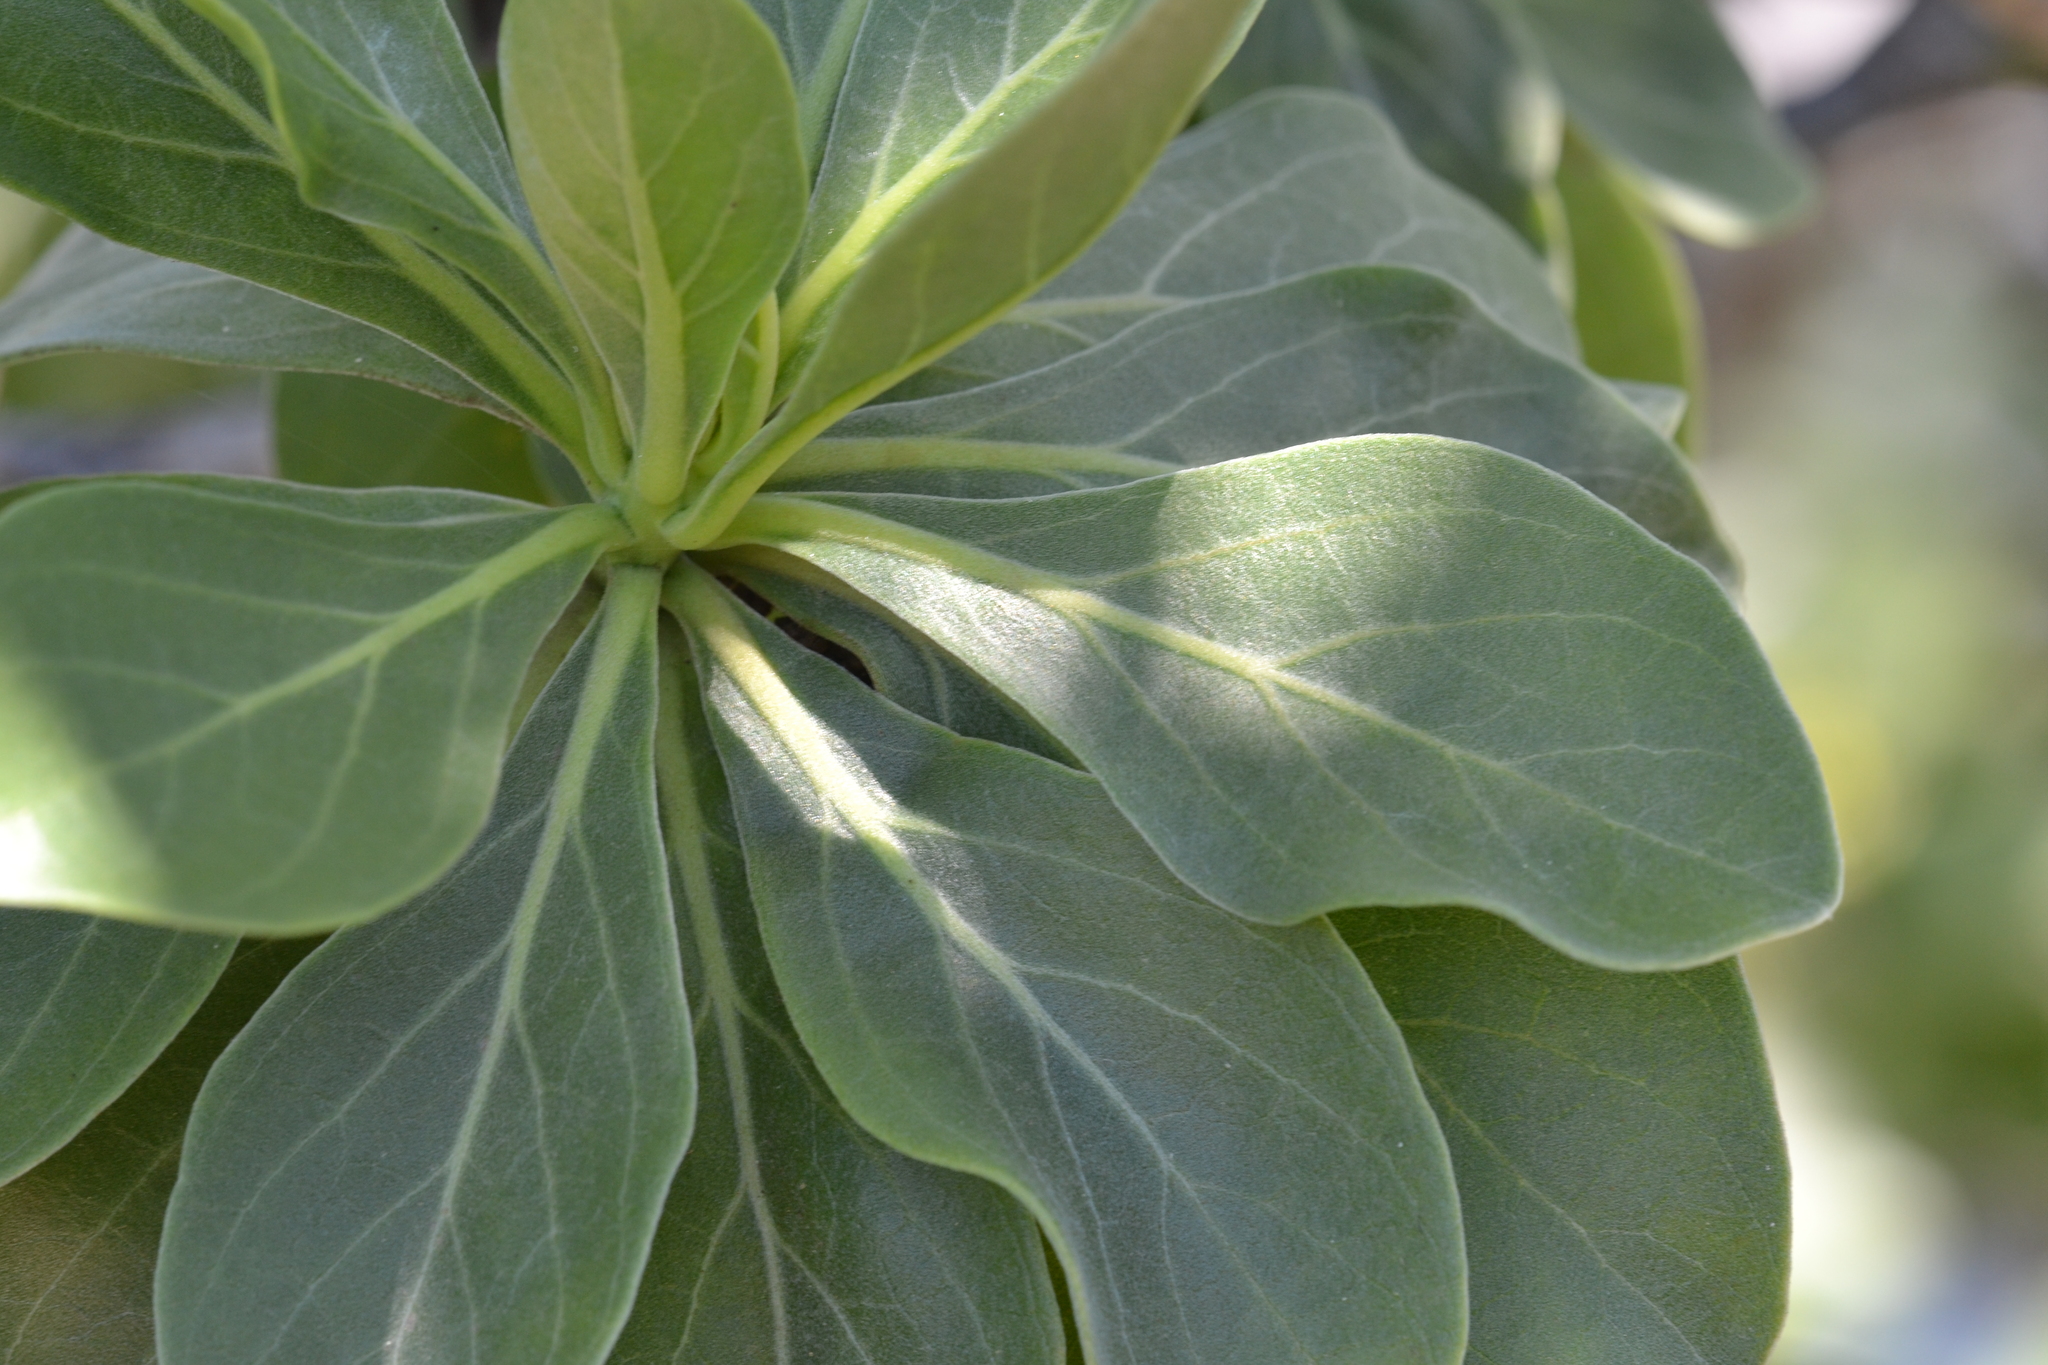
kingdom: Plantae
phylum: Tracheophyta
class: Magnoliopsida
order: Boraginales
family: Heliotropiaceae
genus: Heliotropium
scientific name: Heliotropium velutinum
